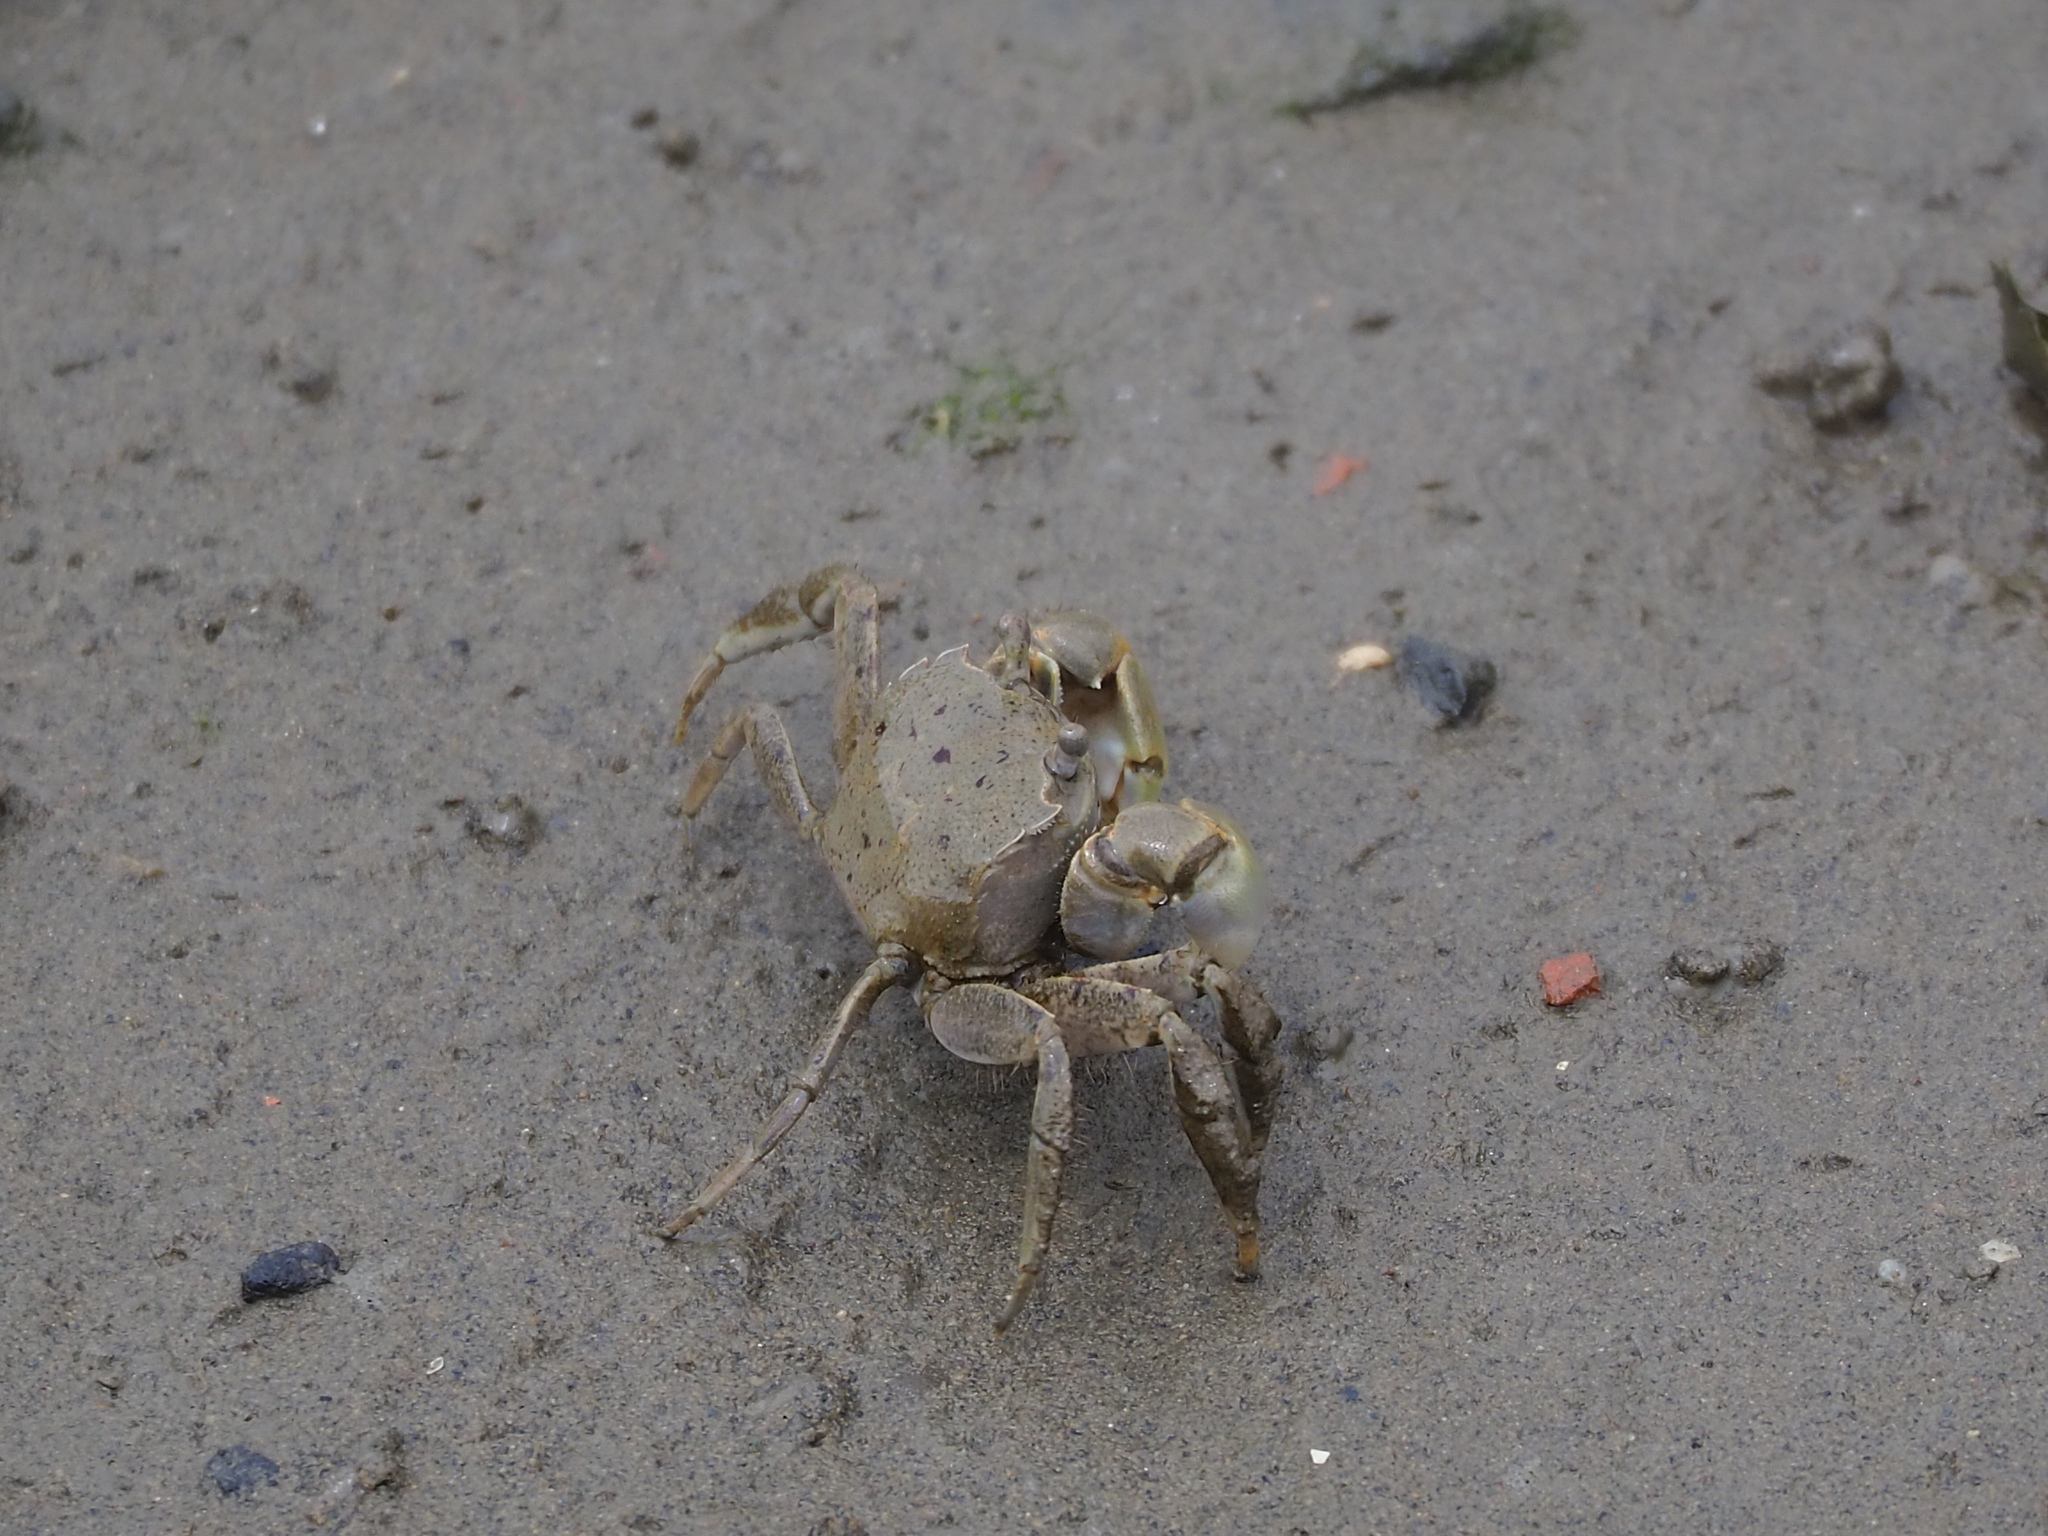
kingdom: Animalia
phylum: Arthropoda
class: Malacostraca
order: Decapoda
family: Varunidae
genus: Helicana
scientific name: Helicana doerjesi
